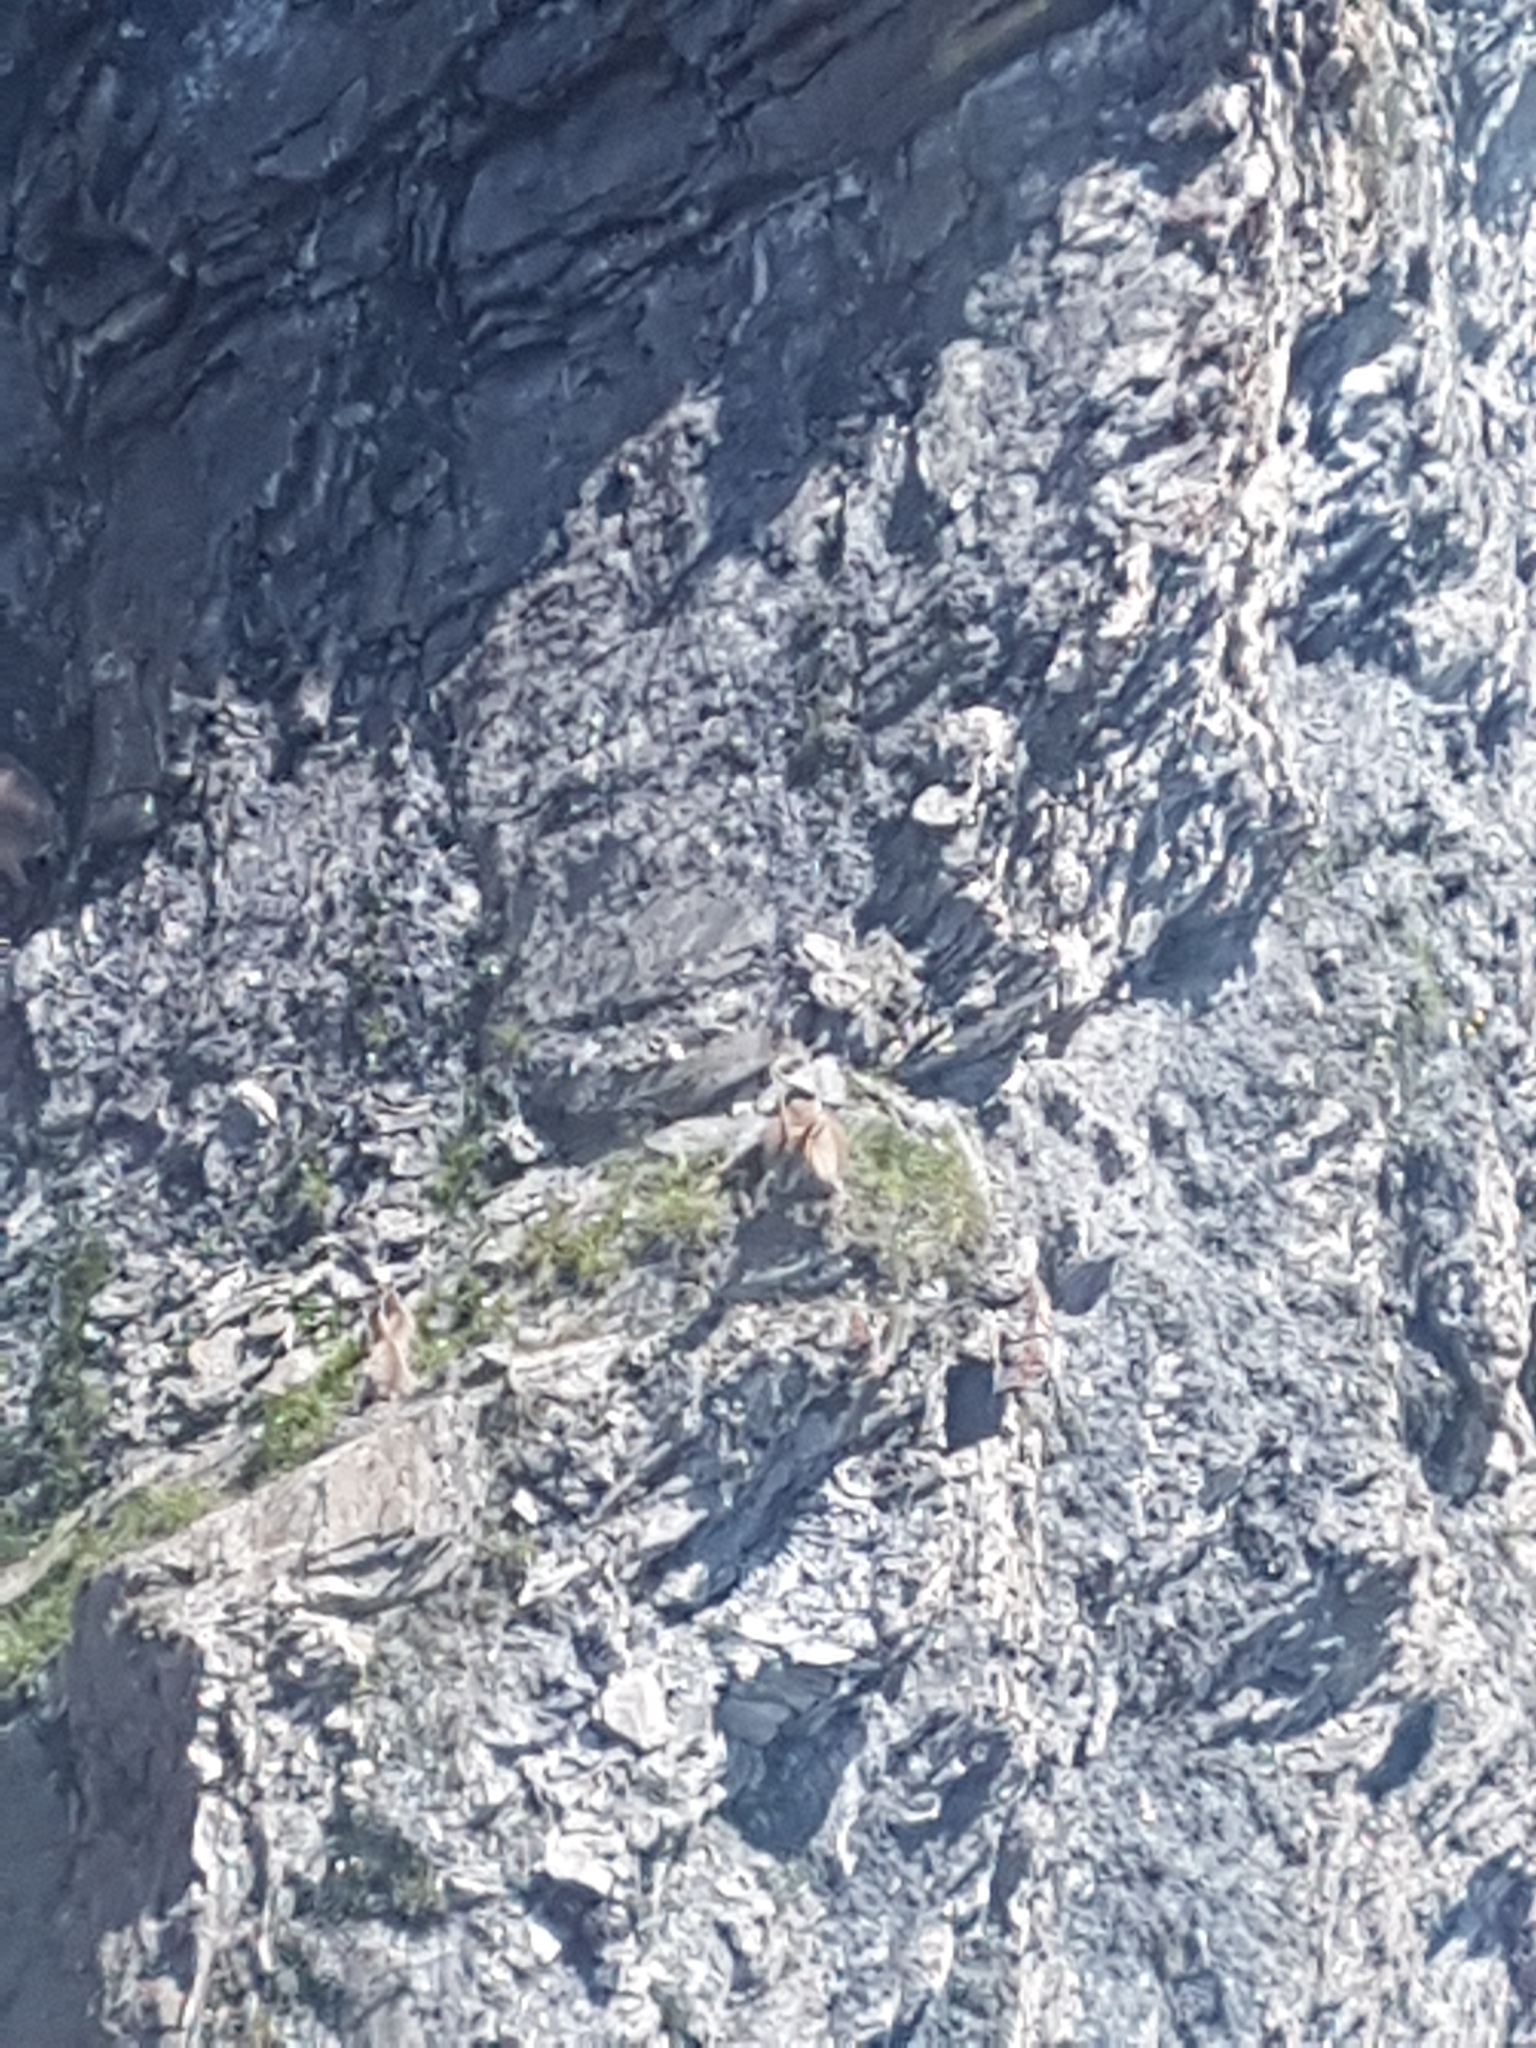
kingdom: Animalia
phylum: Chordata
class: Mammalia
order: Artiodactyla
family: Bovidae
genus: Capra
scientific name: Capra ibex
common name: Alpine ibex
